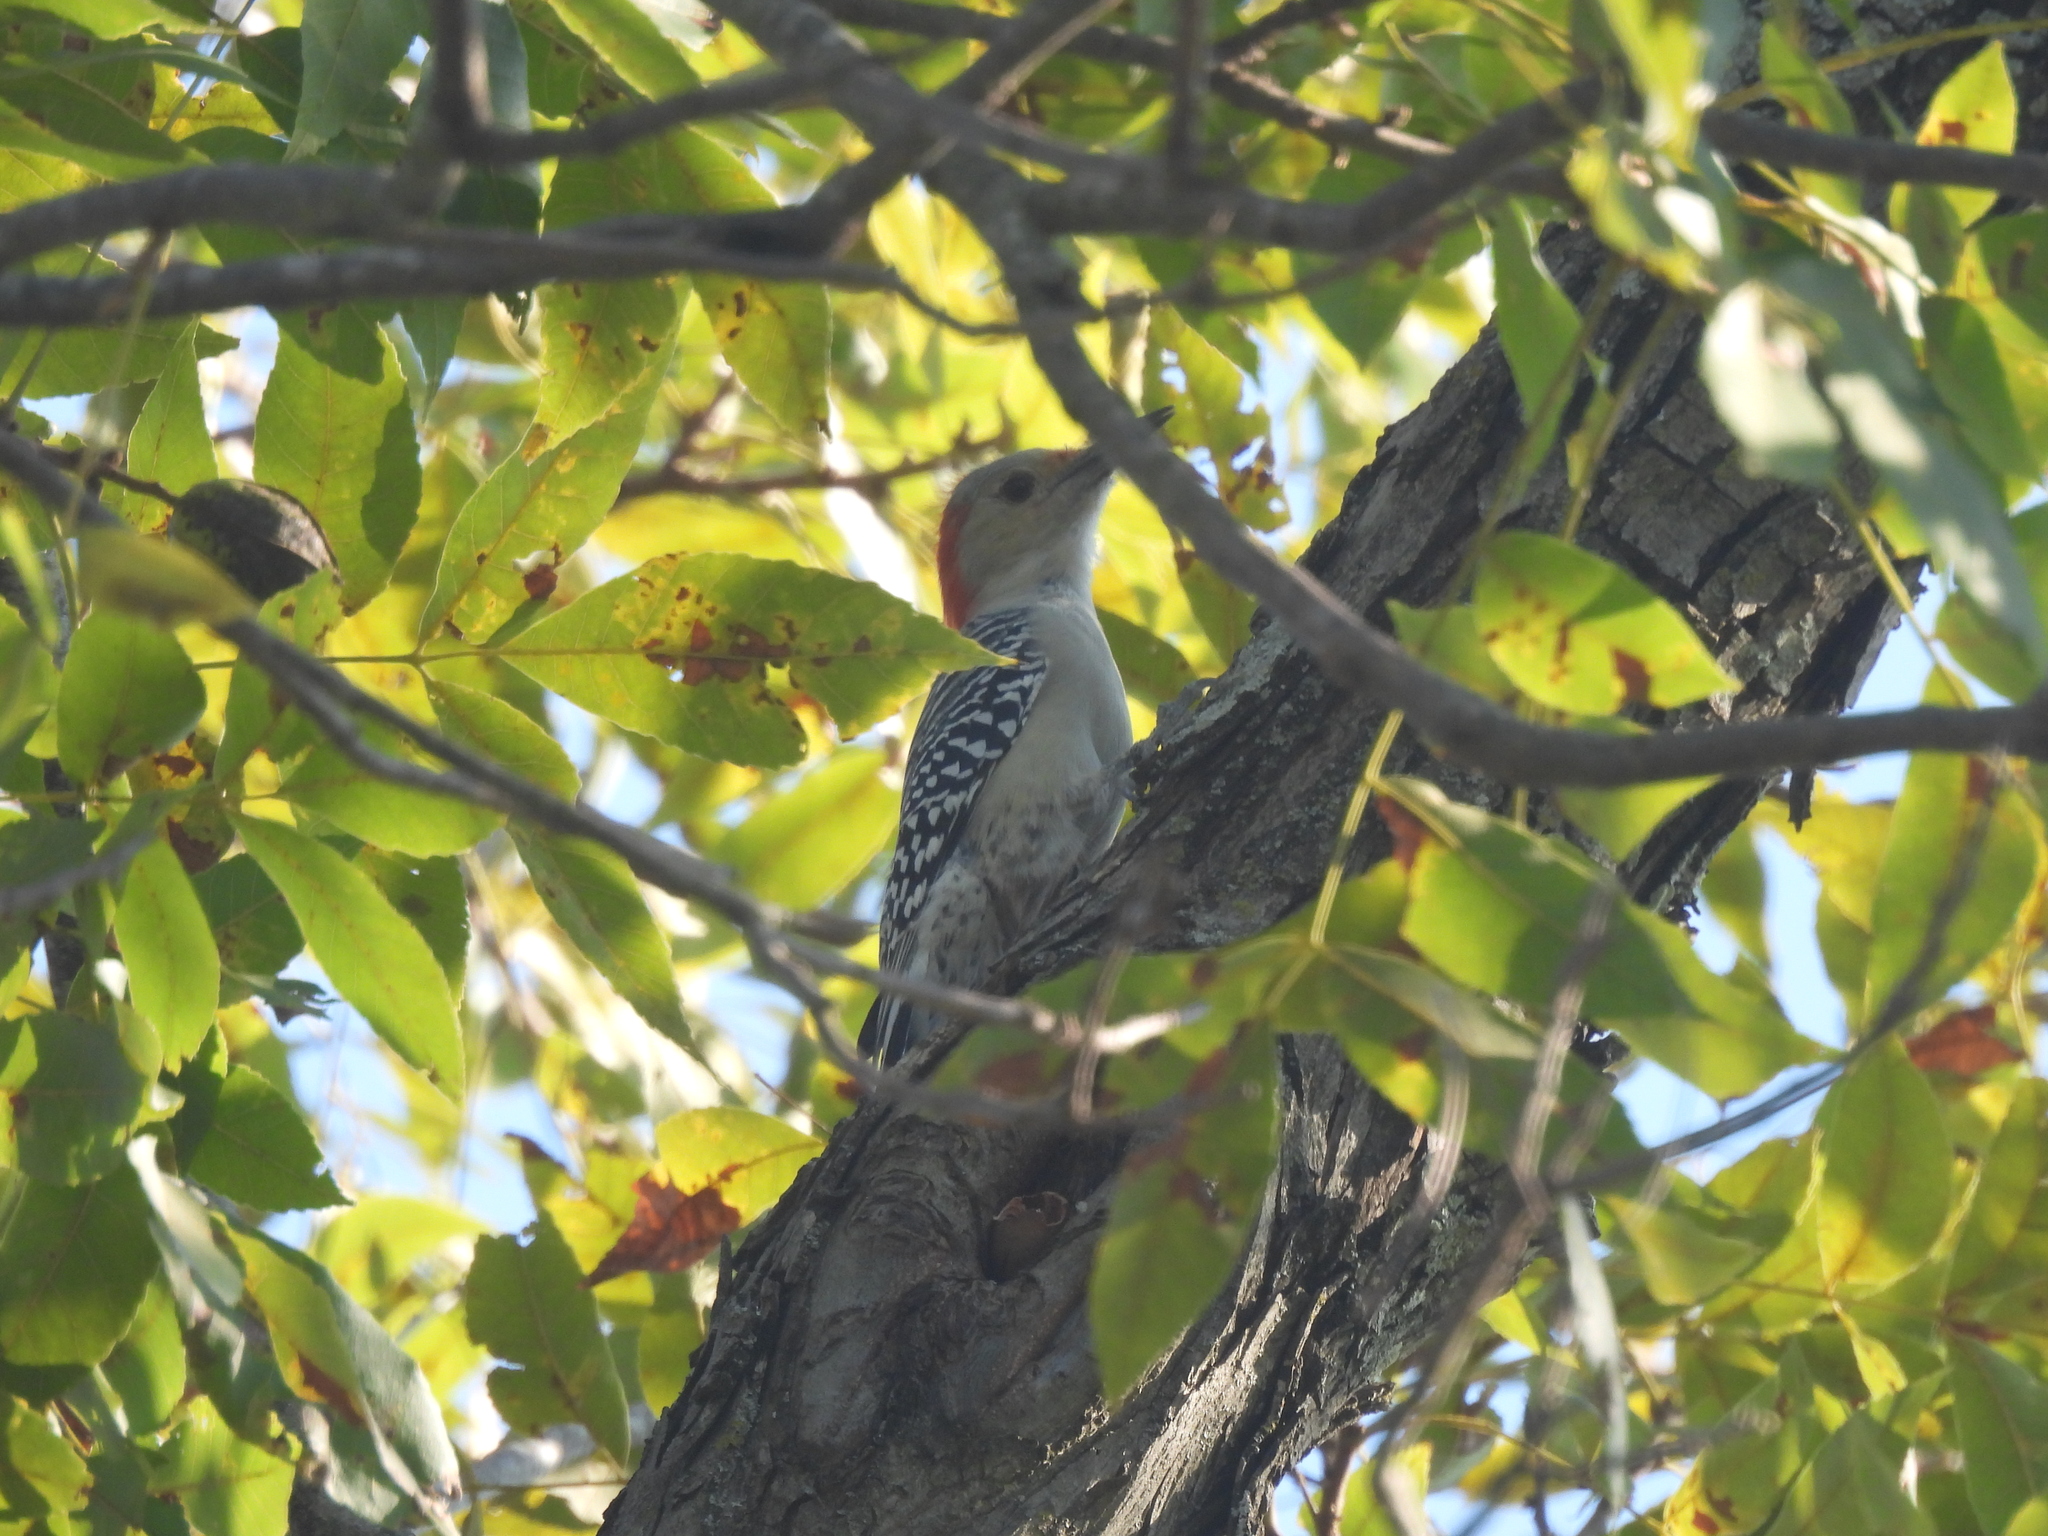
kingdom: Animalia
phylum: Chordata
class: Aves
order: Piciformes
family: Picidae
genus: Melanerpes
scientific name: Melanerpes carolinus
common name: Red-bellied woodpecker
